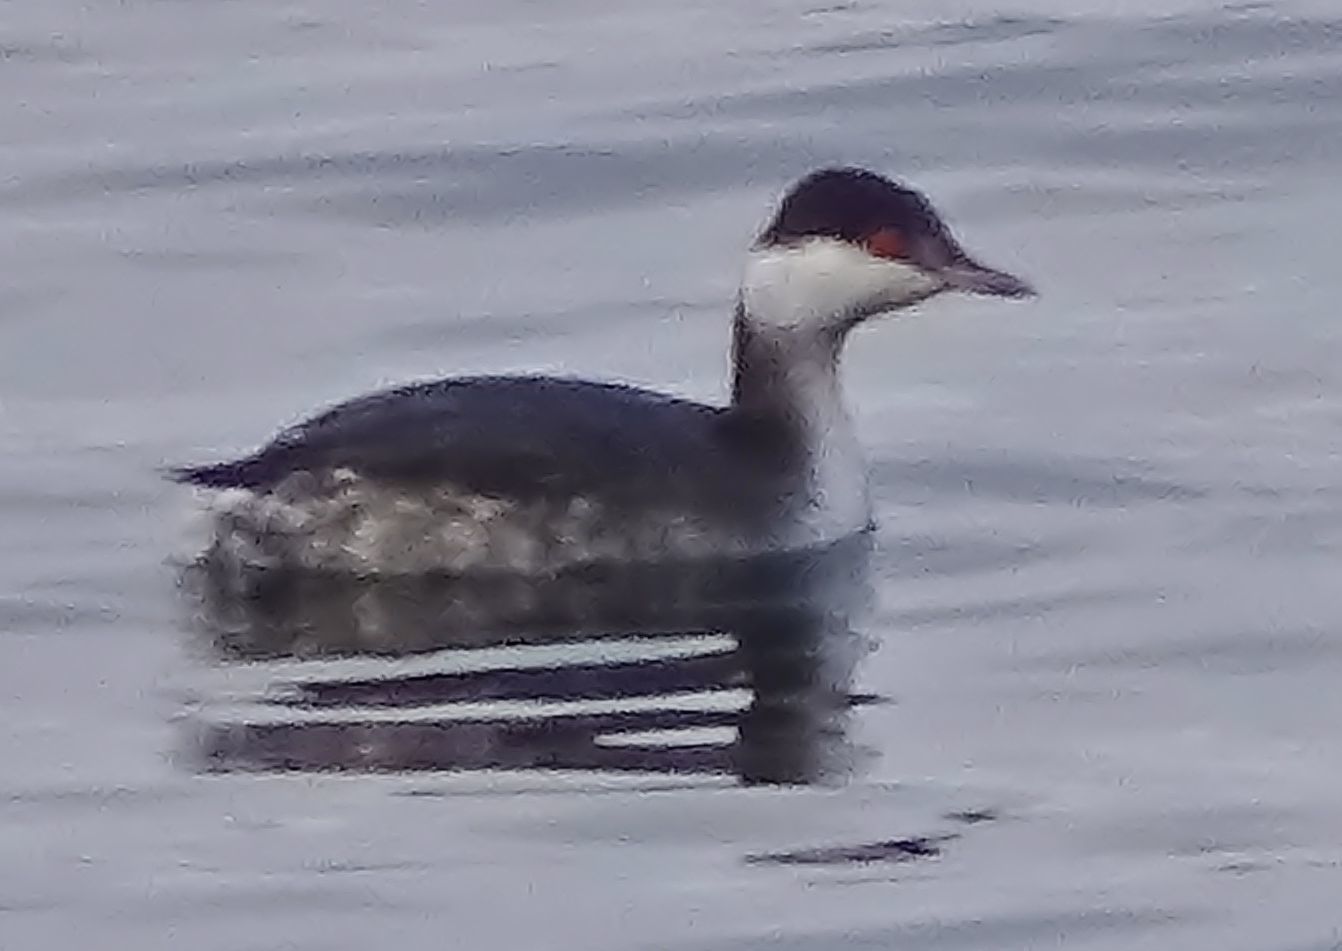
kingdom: Animalia
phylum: Chordata
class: Aves
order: Podicipediformes
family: Podicipedidae
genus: Podiceps
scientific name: Podiceps auritus
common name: Horned grebe
